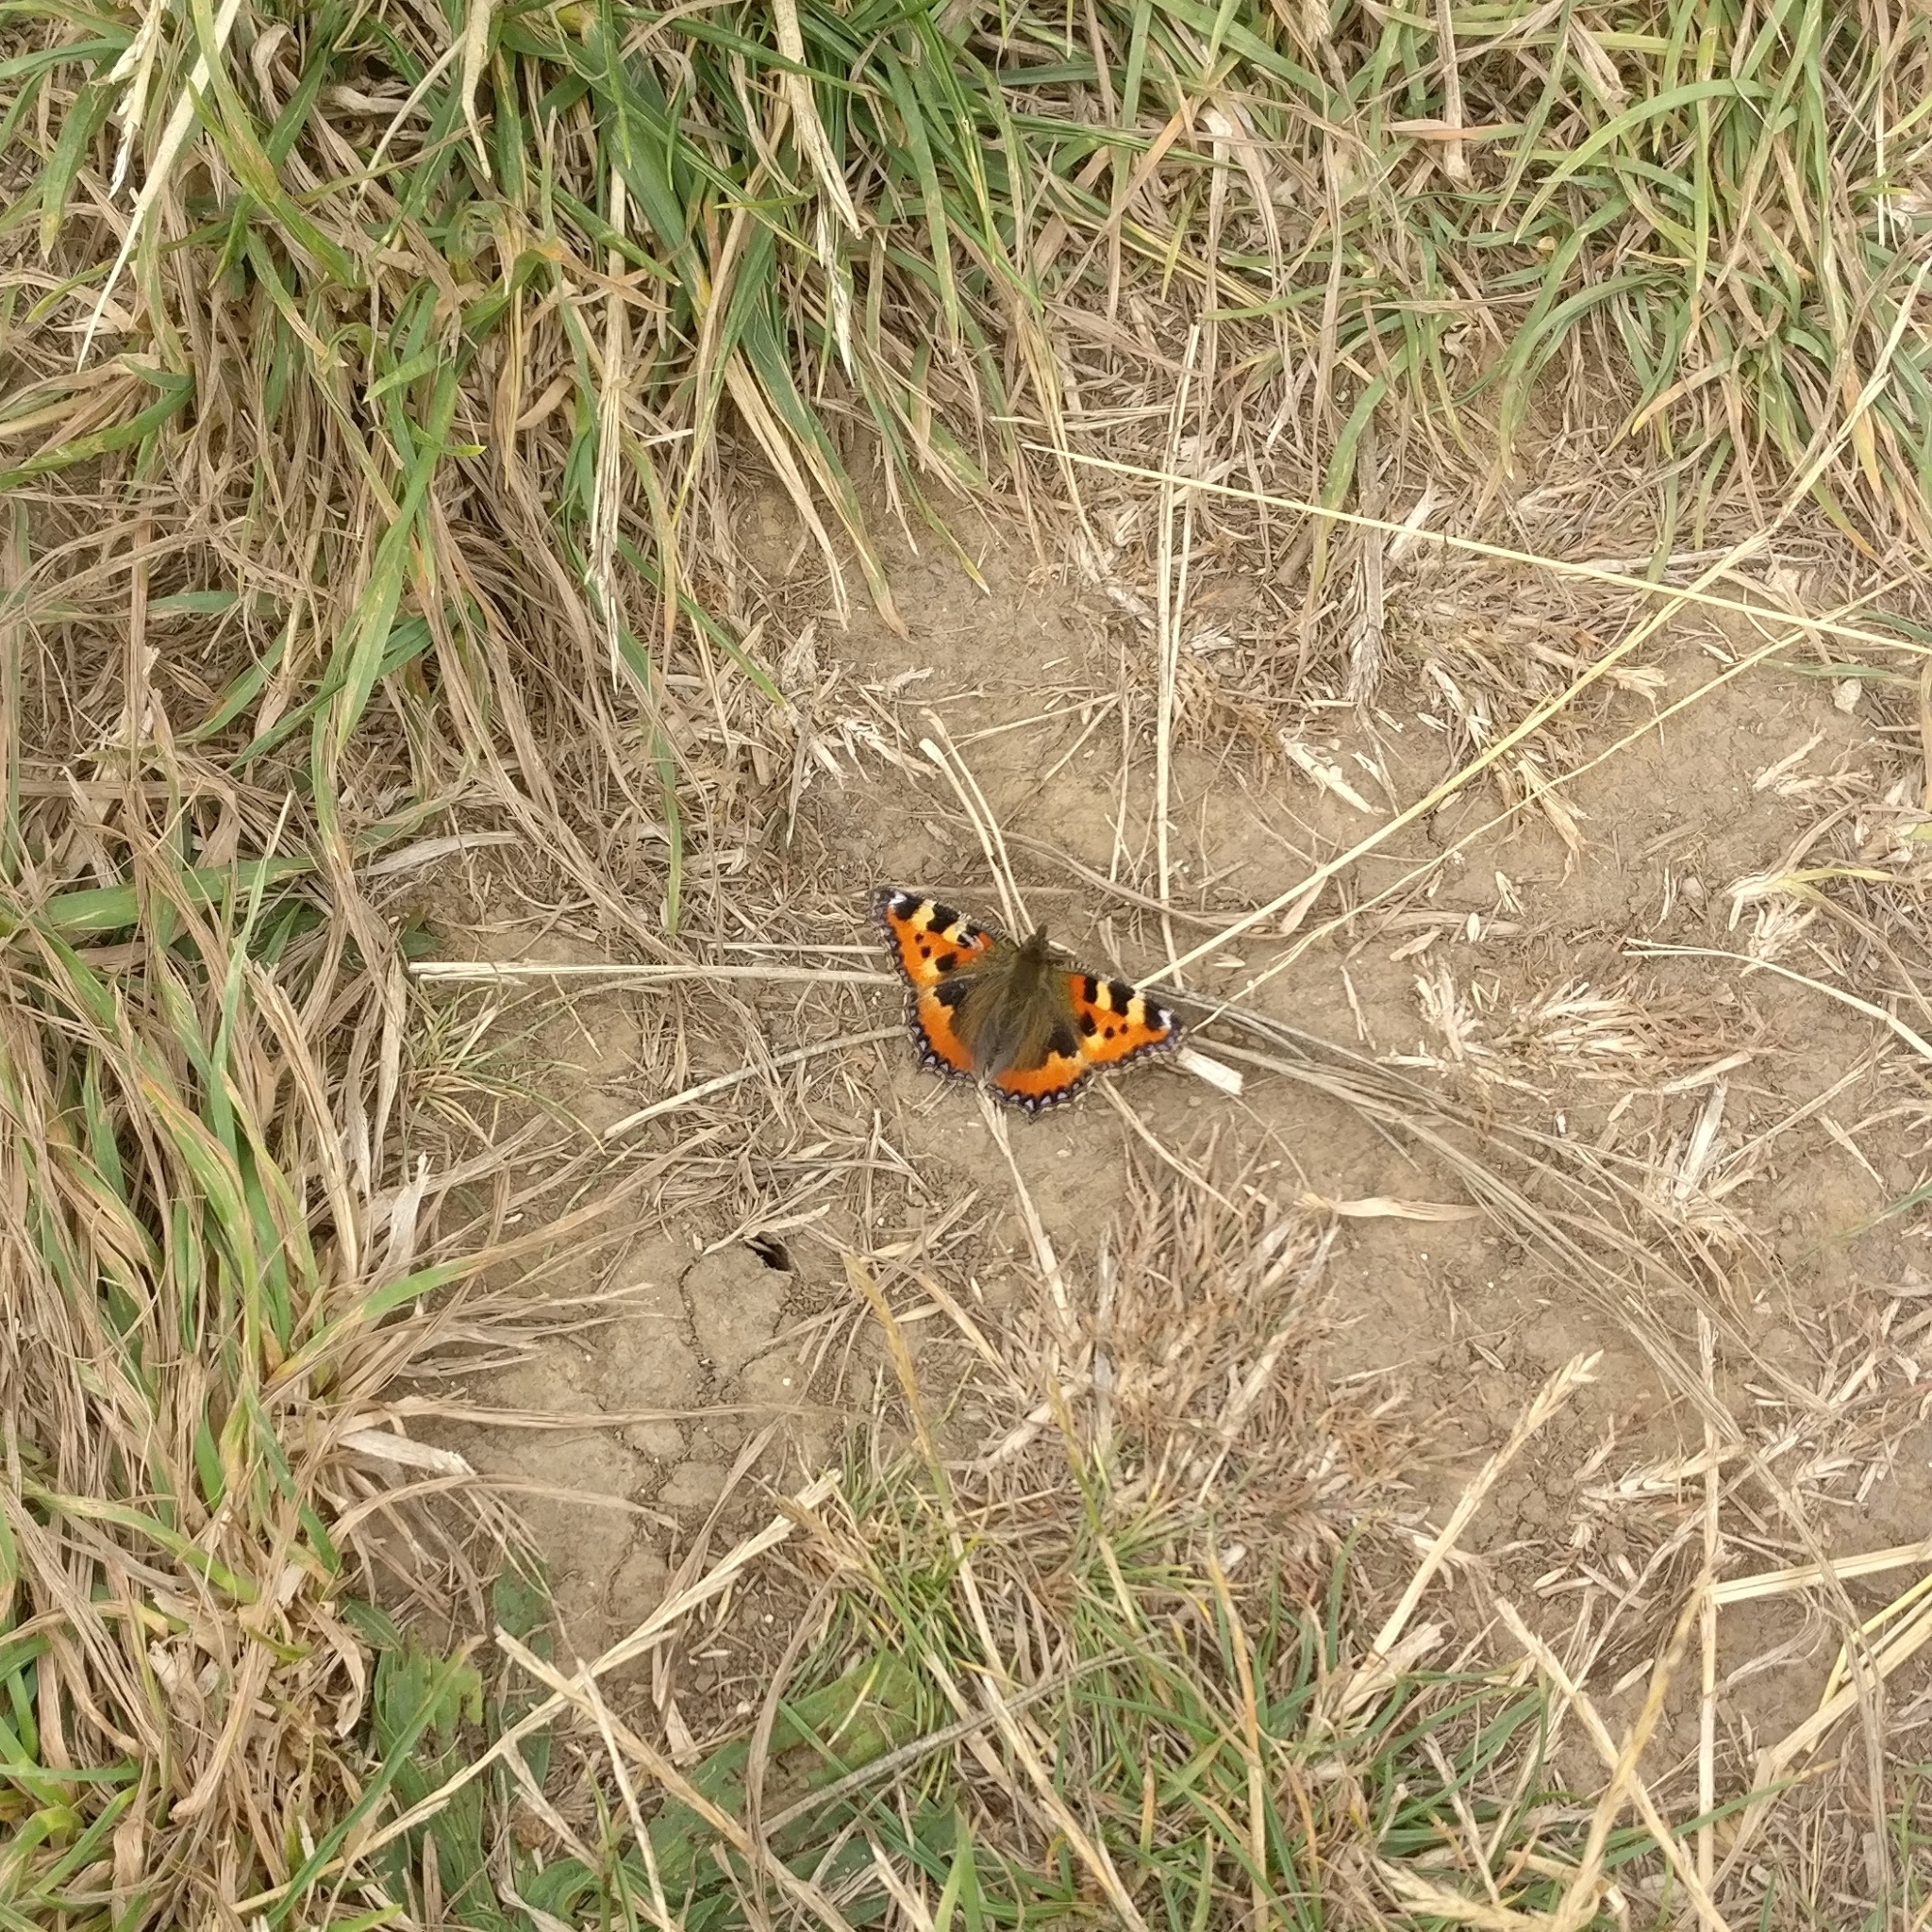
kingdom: Animalia
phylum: Arthropoda
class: Insecta
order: Lepidoptera
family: Nymphalidae
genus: Aglais
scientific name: Aglais urticae
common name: Small tortoiseshell
